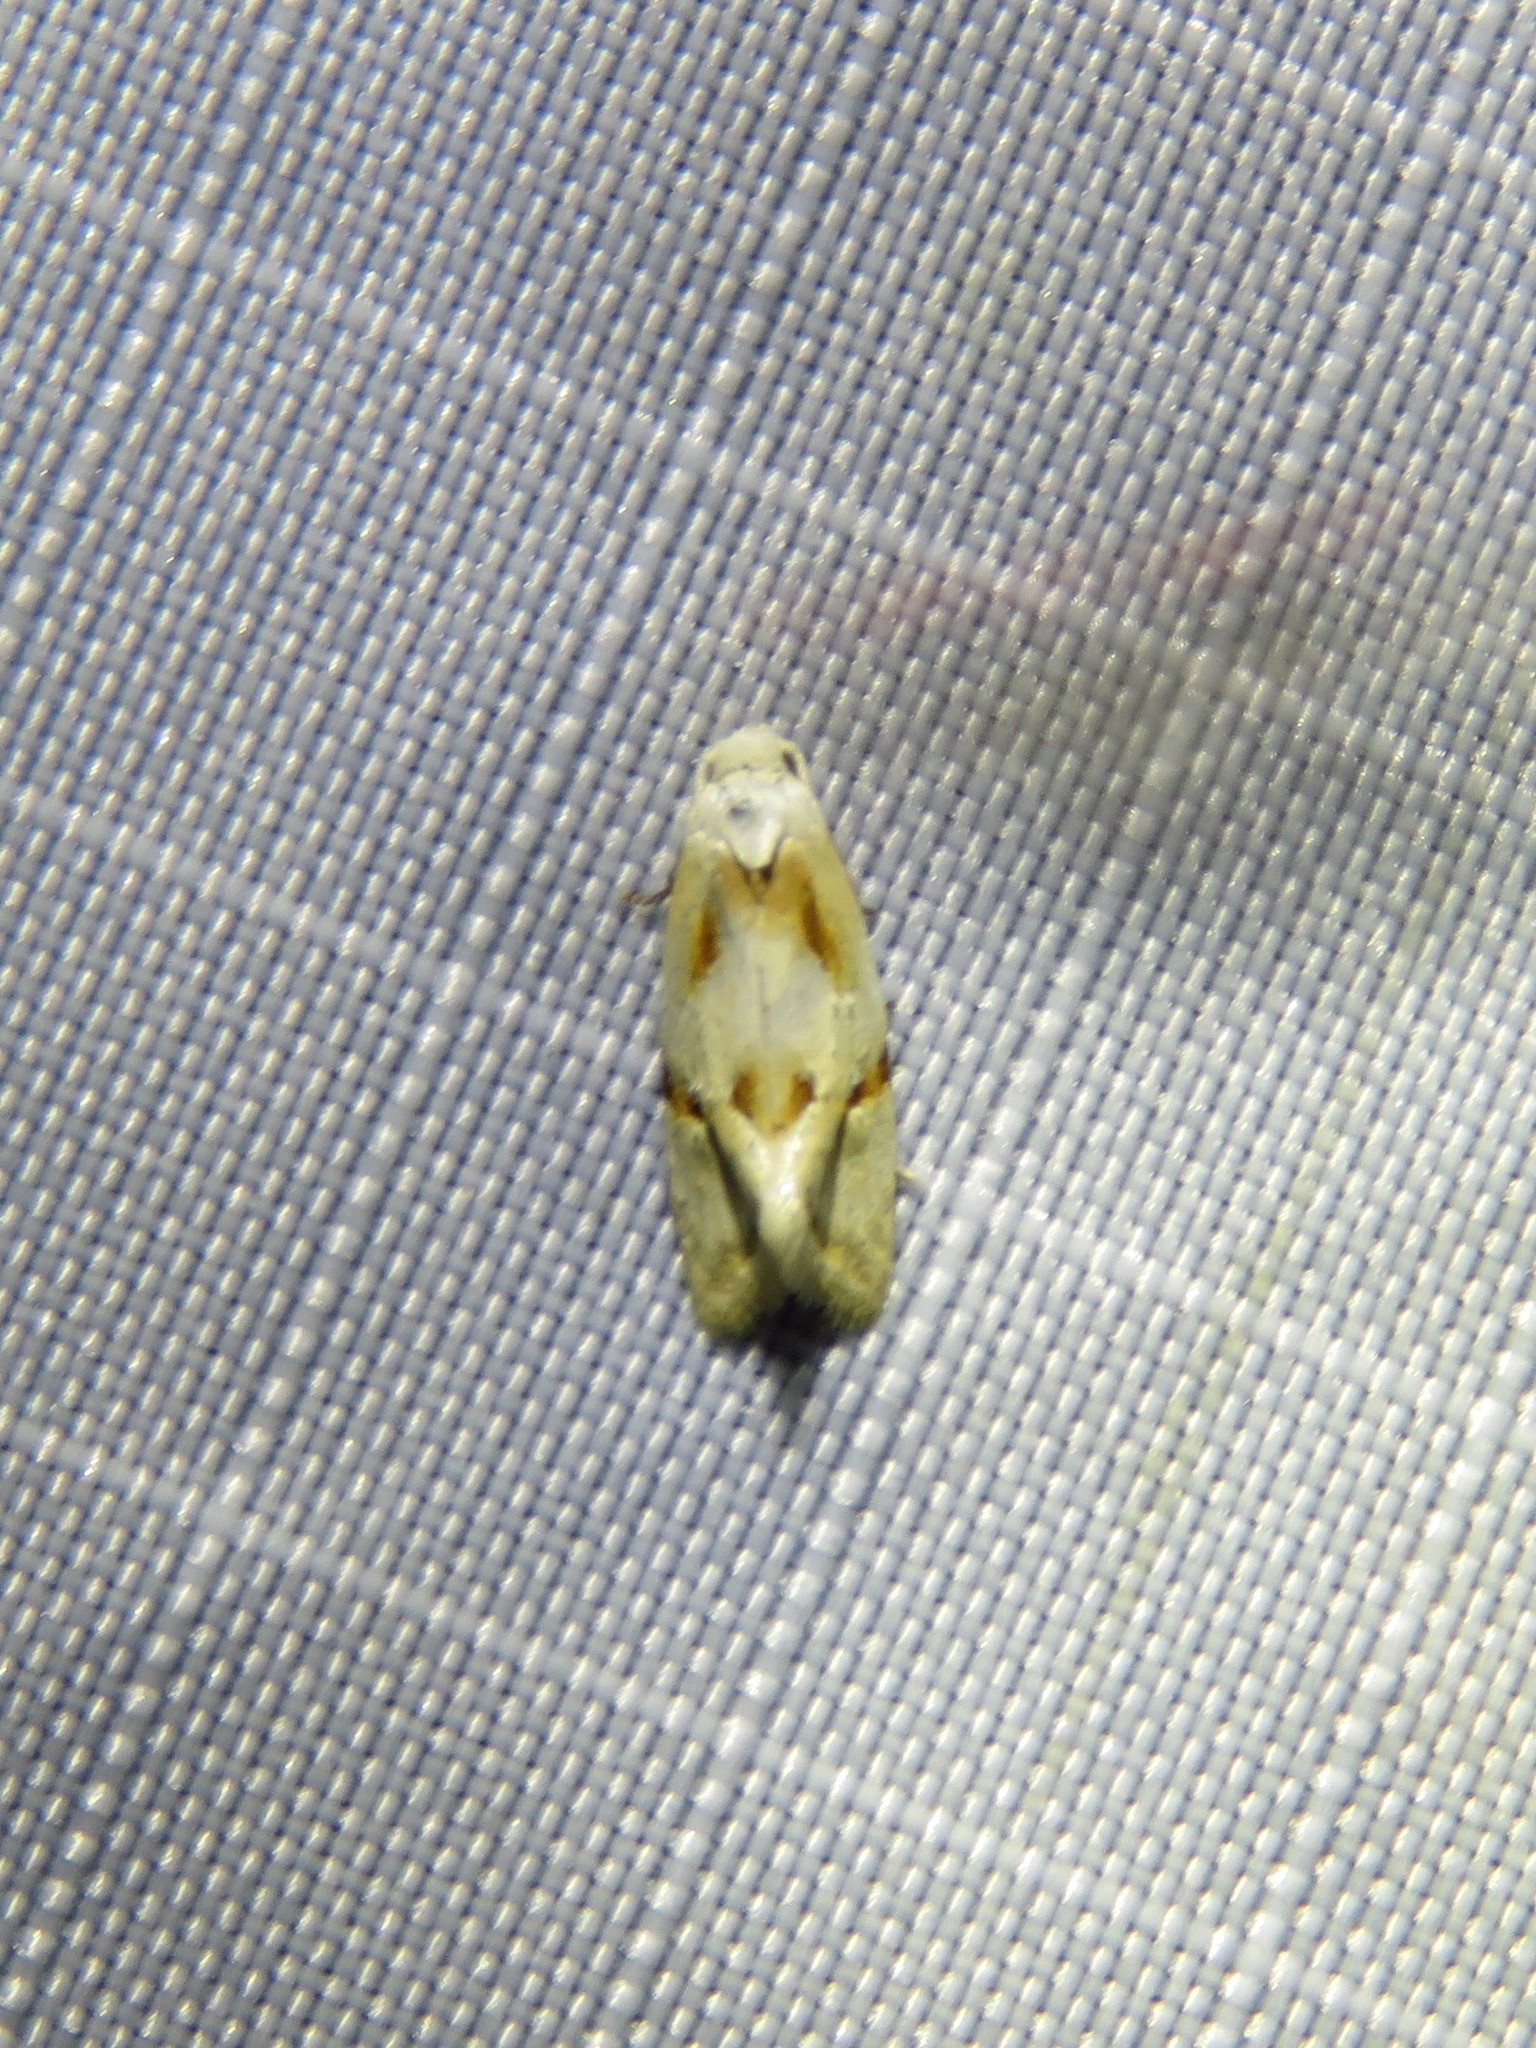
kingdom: Animalia
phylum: Arthropoda
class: Insecta
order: Lepidoptera
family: Tortricidae
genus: Aethes
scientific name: Aethes seriatana
